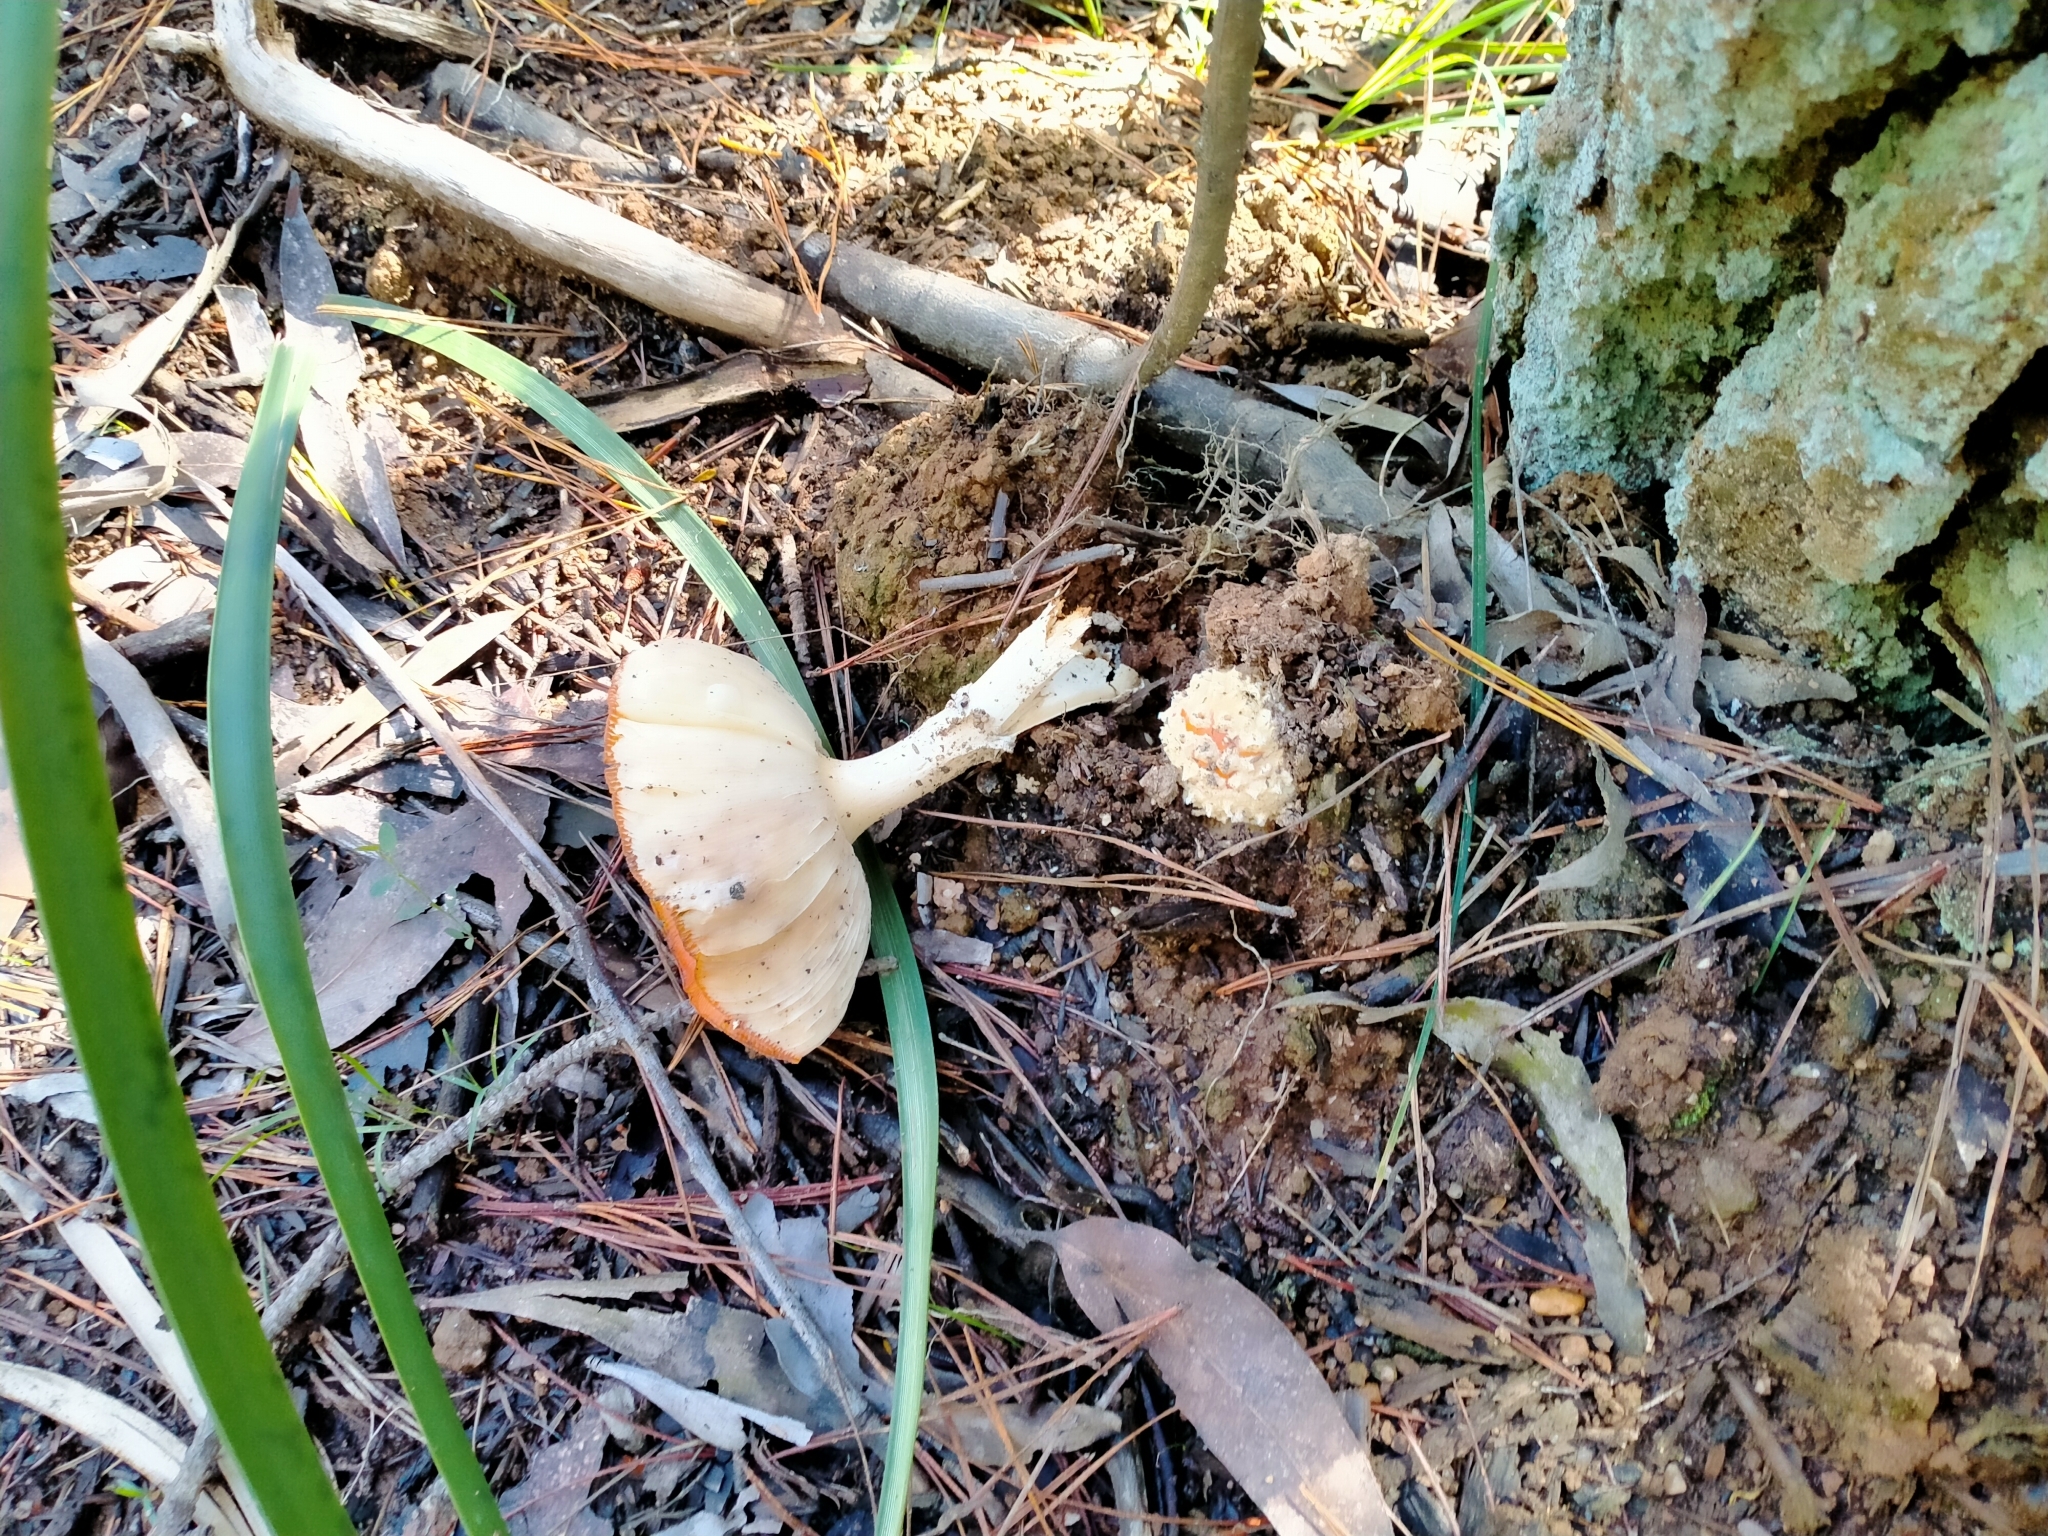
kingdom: Fungi
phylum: Basidiomycota
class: Agaricomycetes
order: Agaricales
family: Amanitaceae
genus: Amanita
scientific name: Amanita muscaria
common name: Fly agaric
